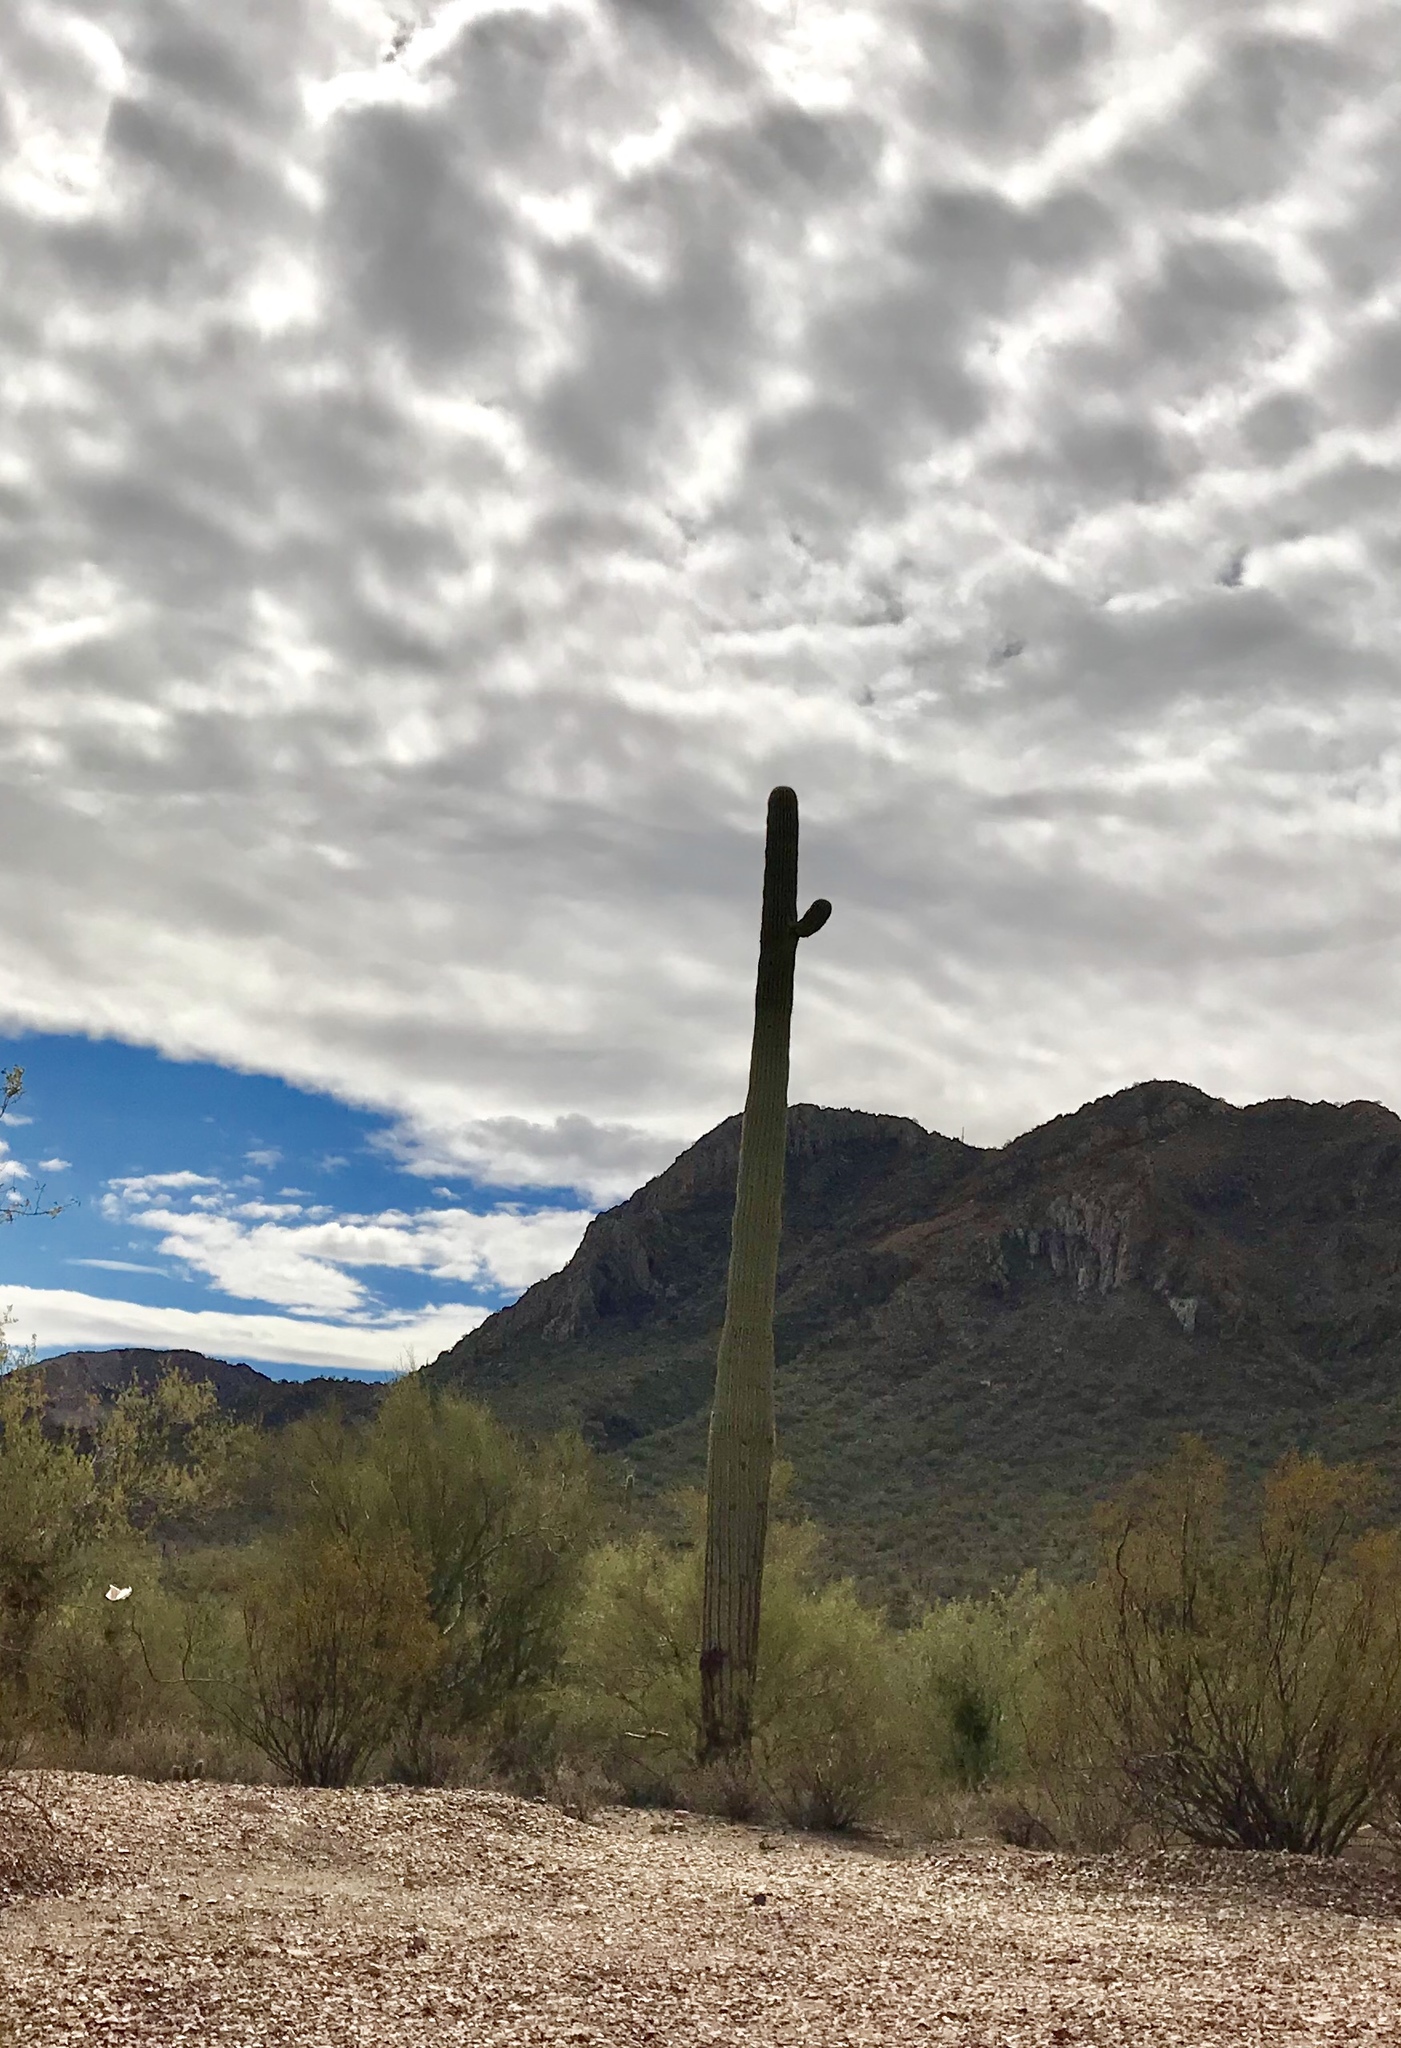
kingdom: Plantae
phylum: Tracheophyta
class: Magnoliopsida
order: Caryophyllales
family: Cactaceae
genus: Carnegiea
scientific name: Carnegiea gigantea
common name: Saguaro
